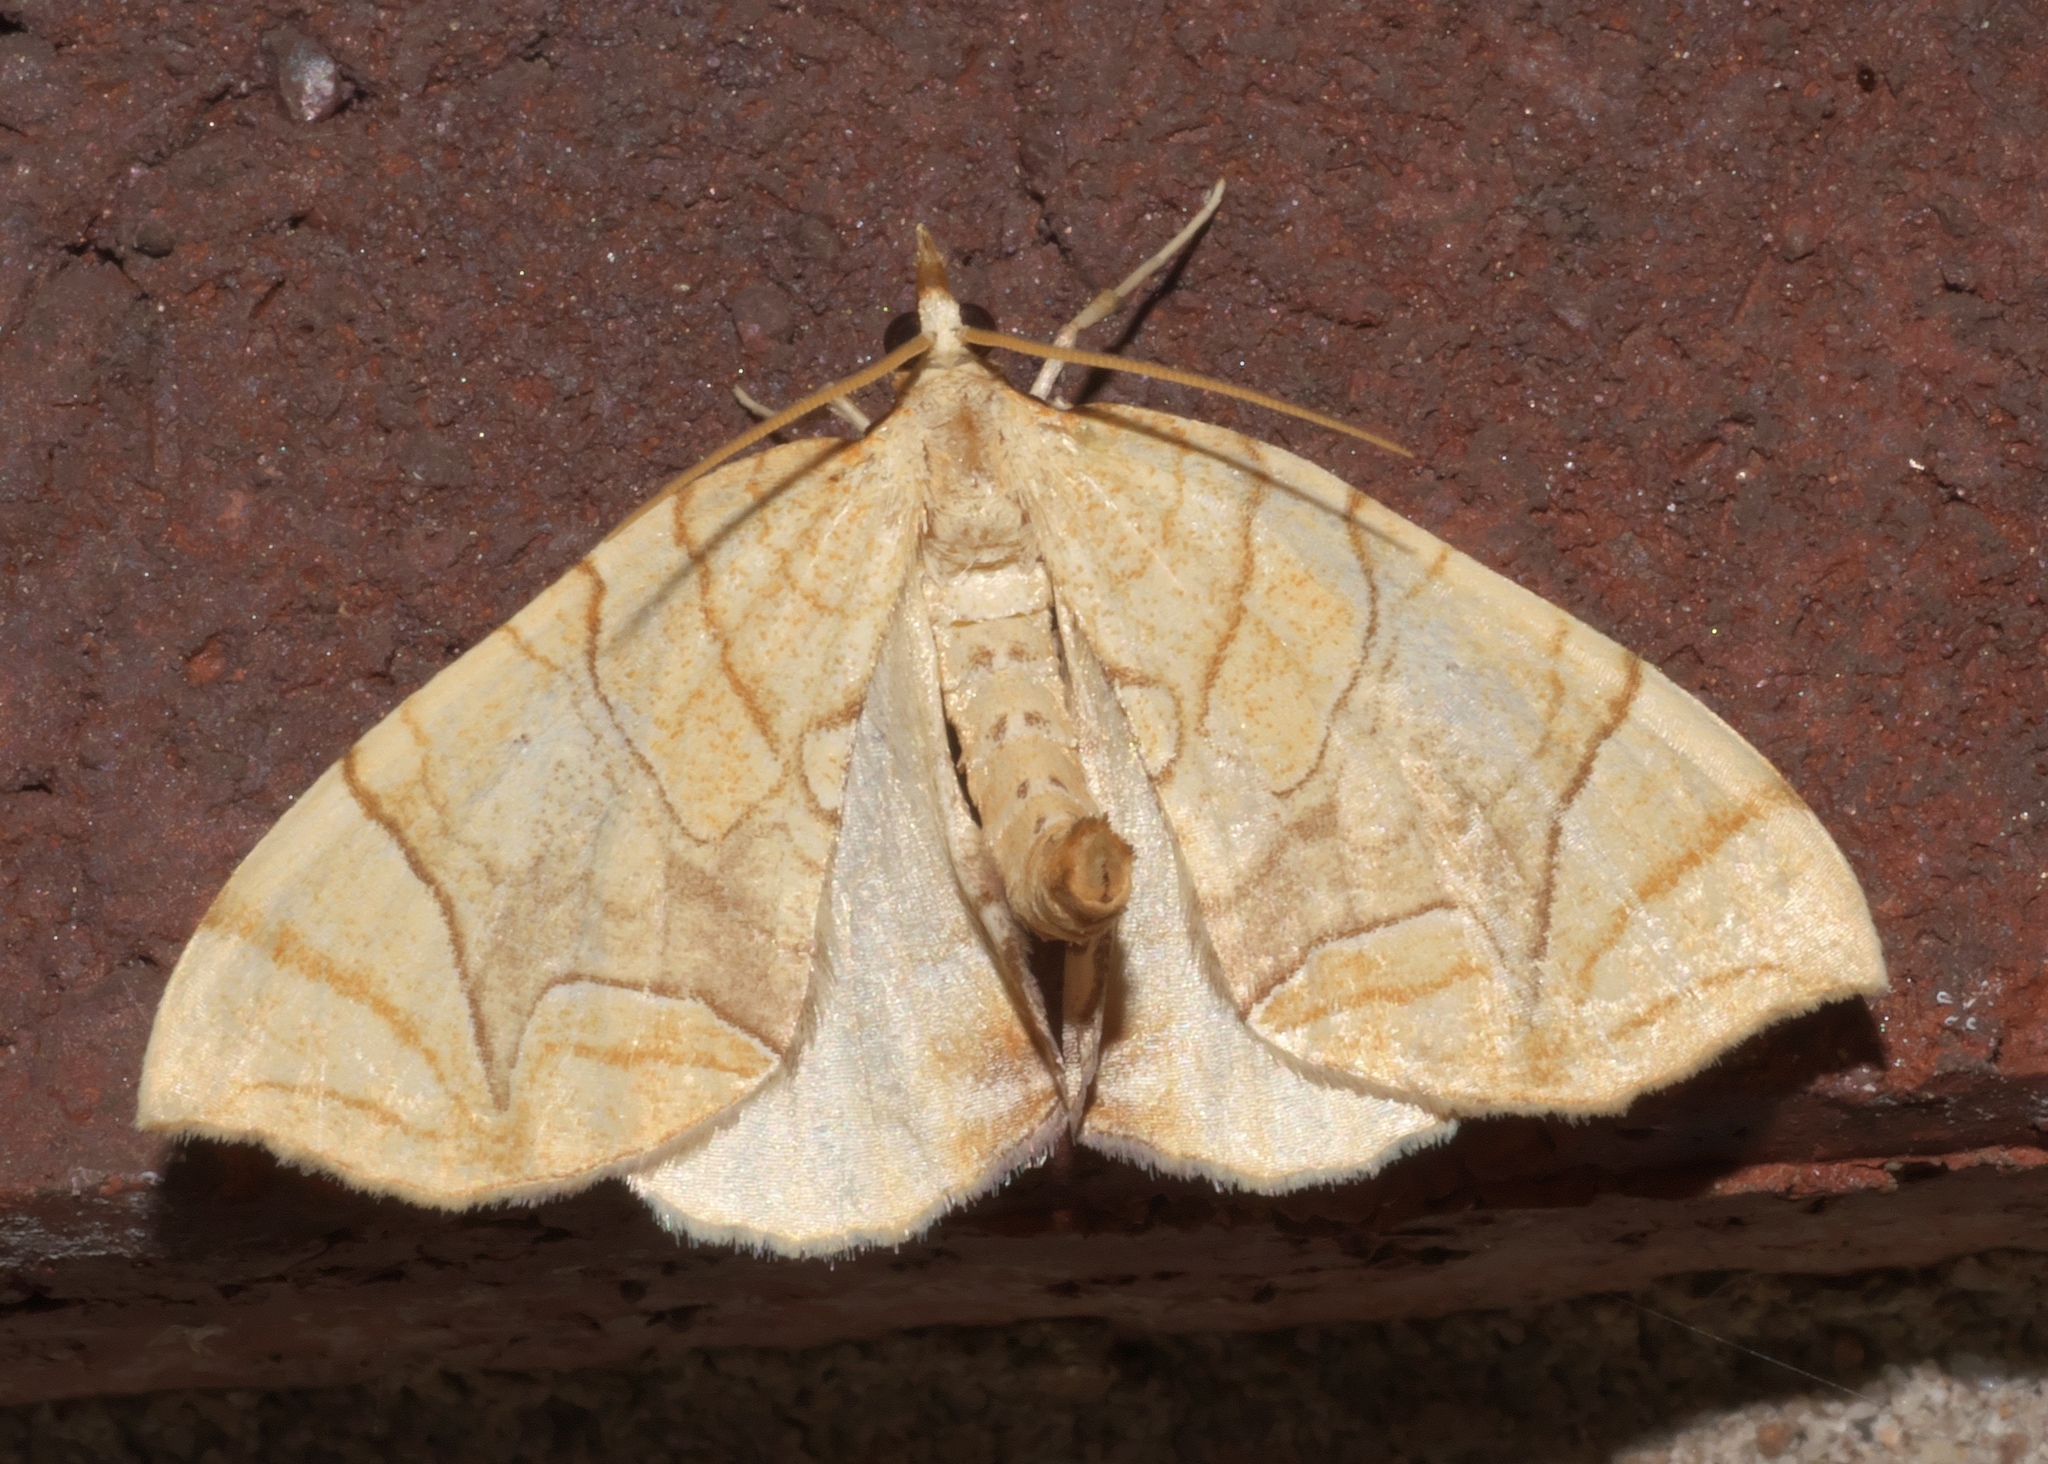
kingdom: Animalia
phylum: Arthropoda
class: Insecta
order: Lepidoptera
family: Geometridae
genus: Eulithis
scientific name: Eulithis
